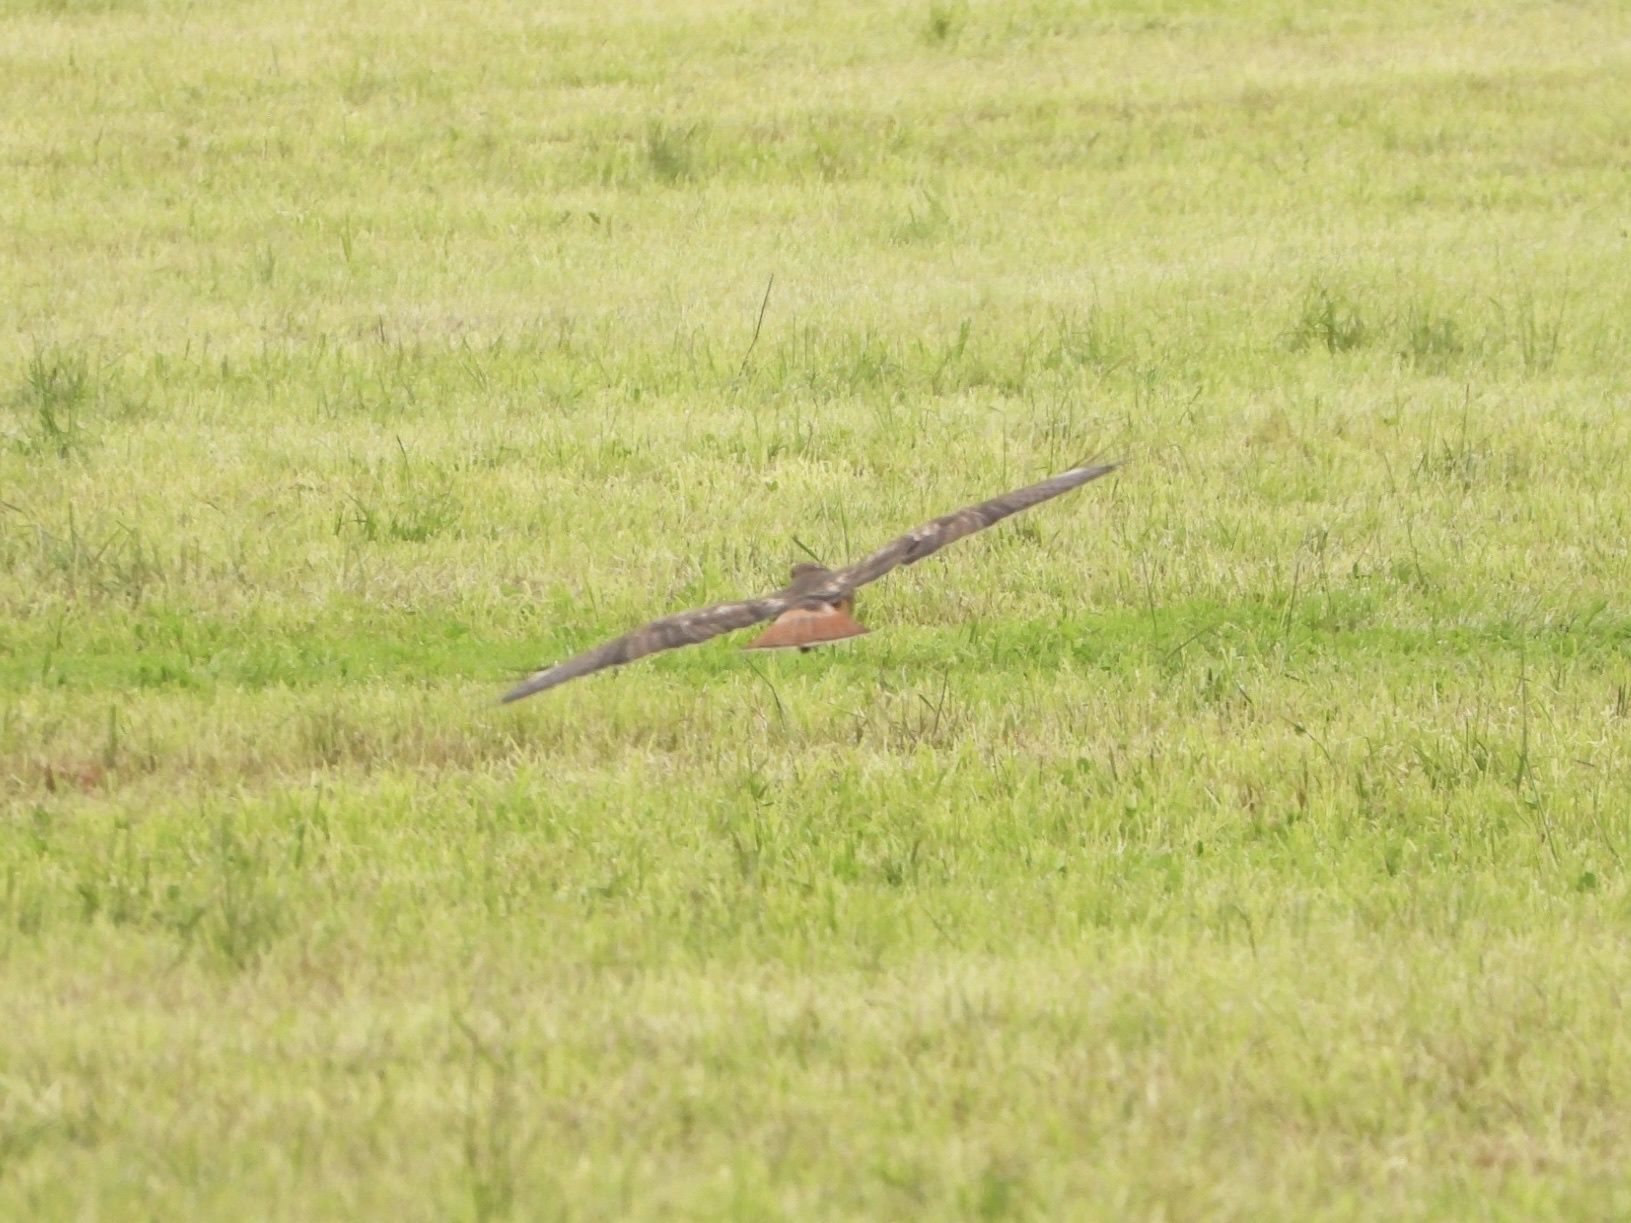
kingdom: Animalia
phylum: Chordata
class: Aves
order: Accipitriformes
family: Accipitridae
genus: Buteo
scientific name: Buteo jamaicensis
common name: Red-tailed hawk
